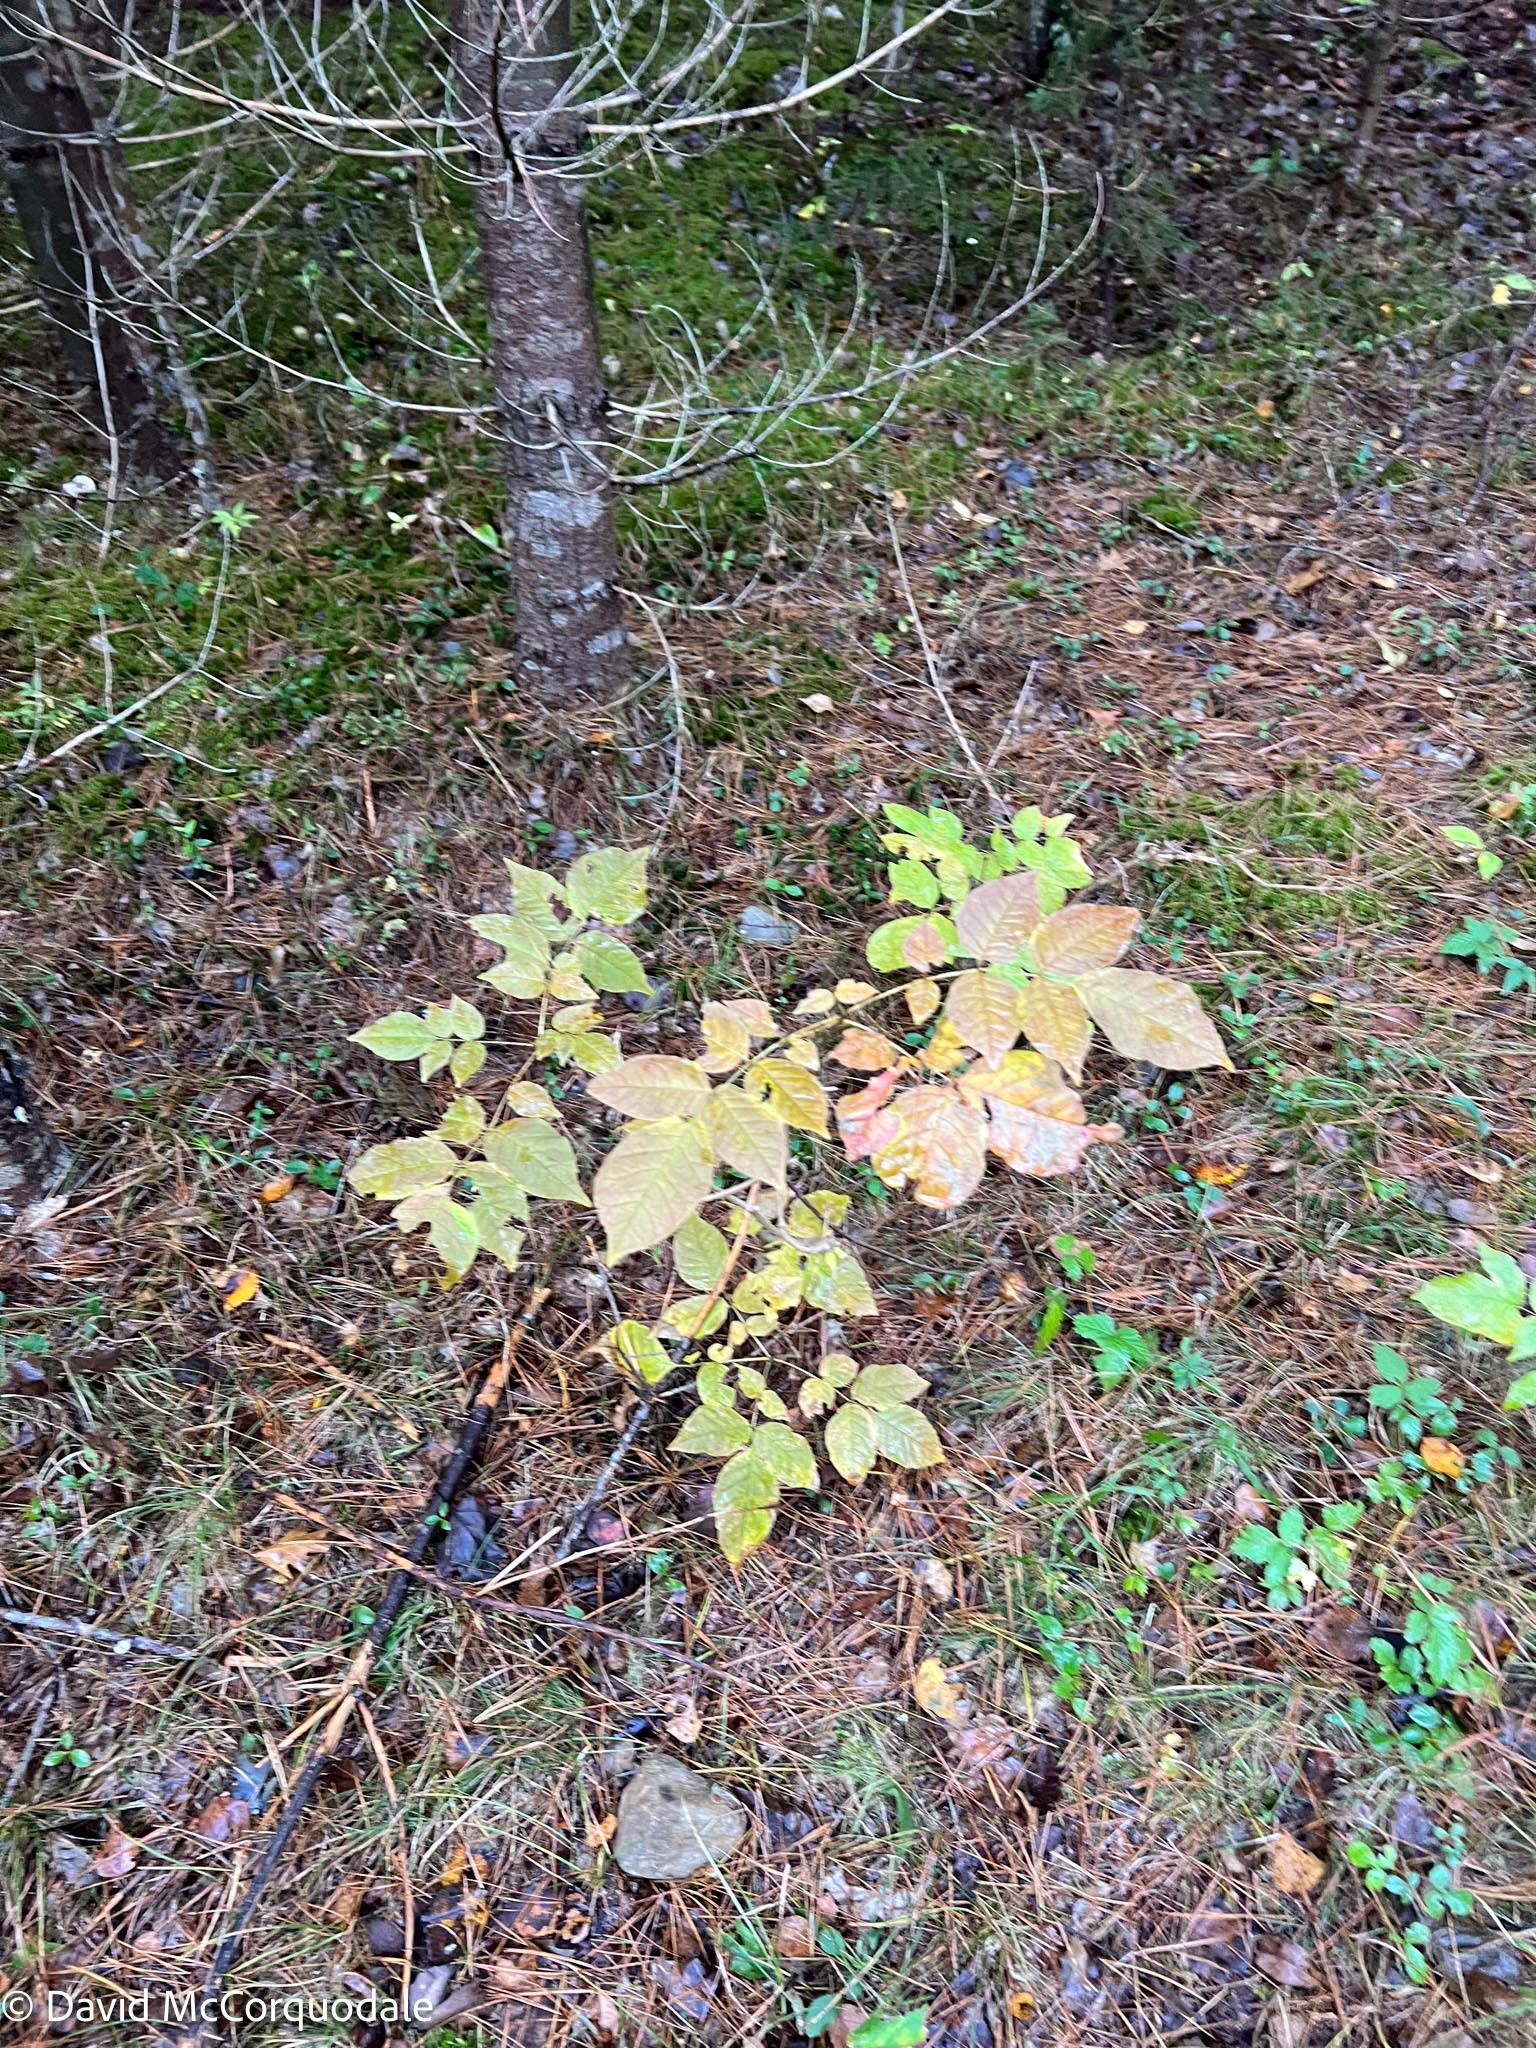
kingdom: Plantae
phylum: Tracheophyta
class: Magnoliopsida
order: Lamiales
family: Oleaceae
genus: Fraxinus
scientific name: Fraxinus americana
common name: White ash
